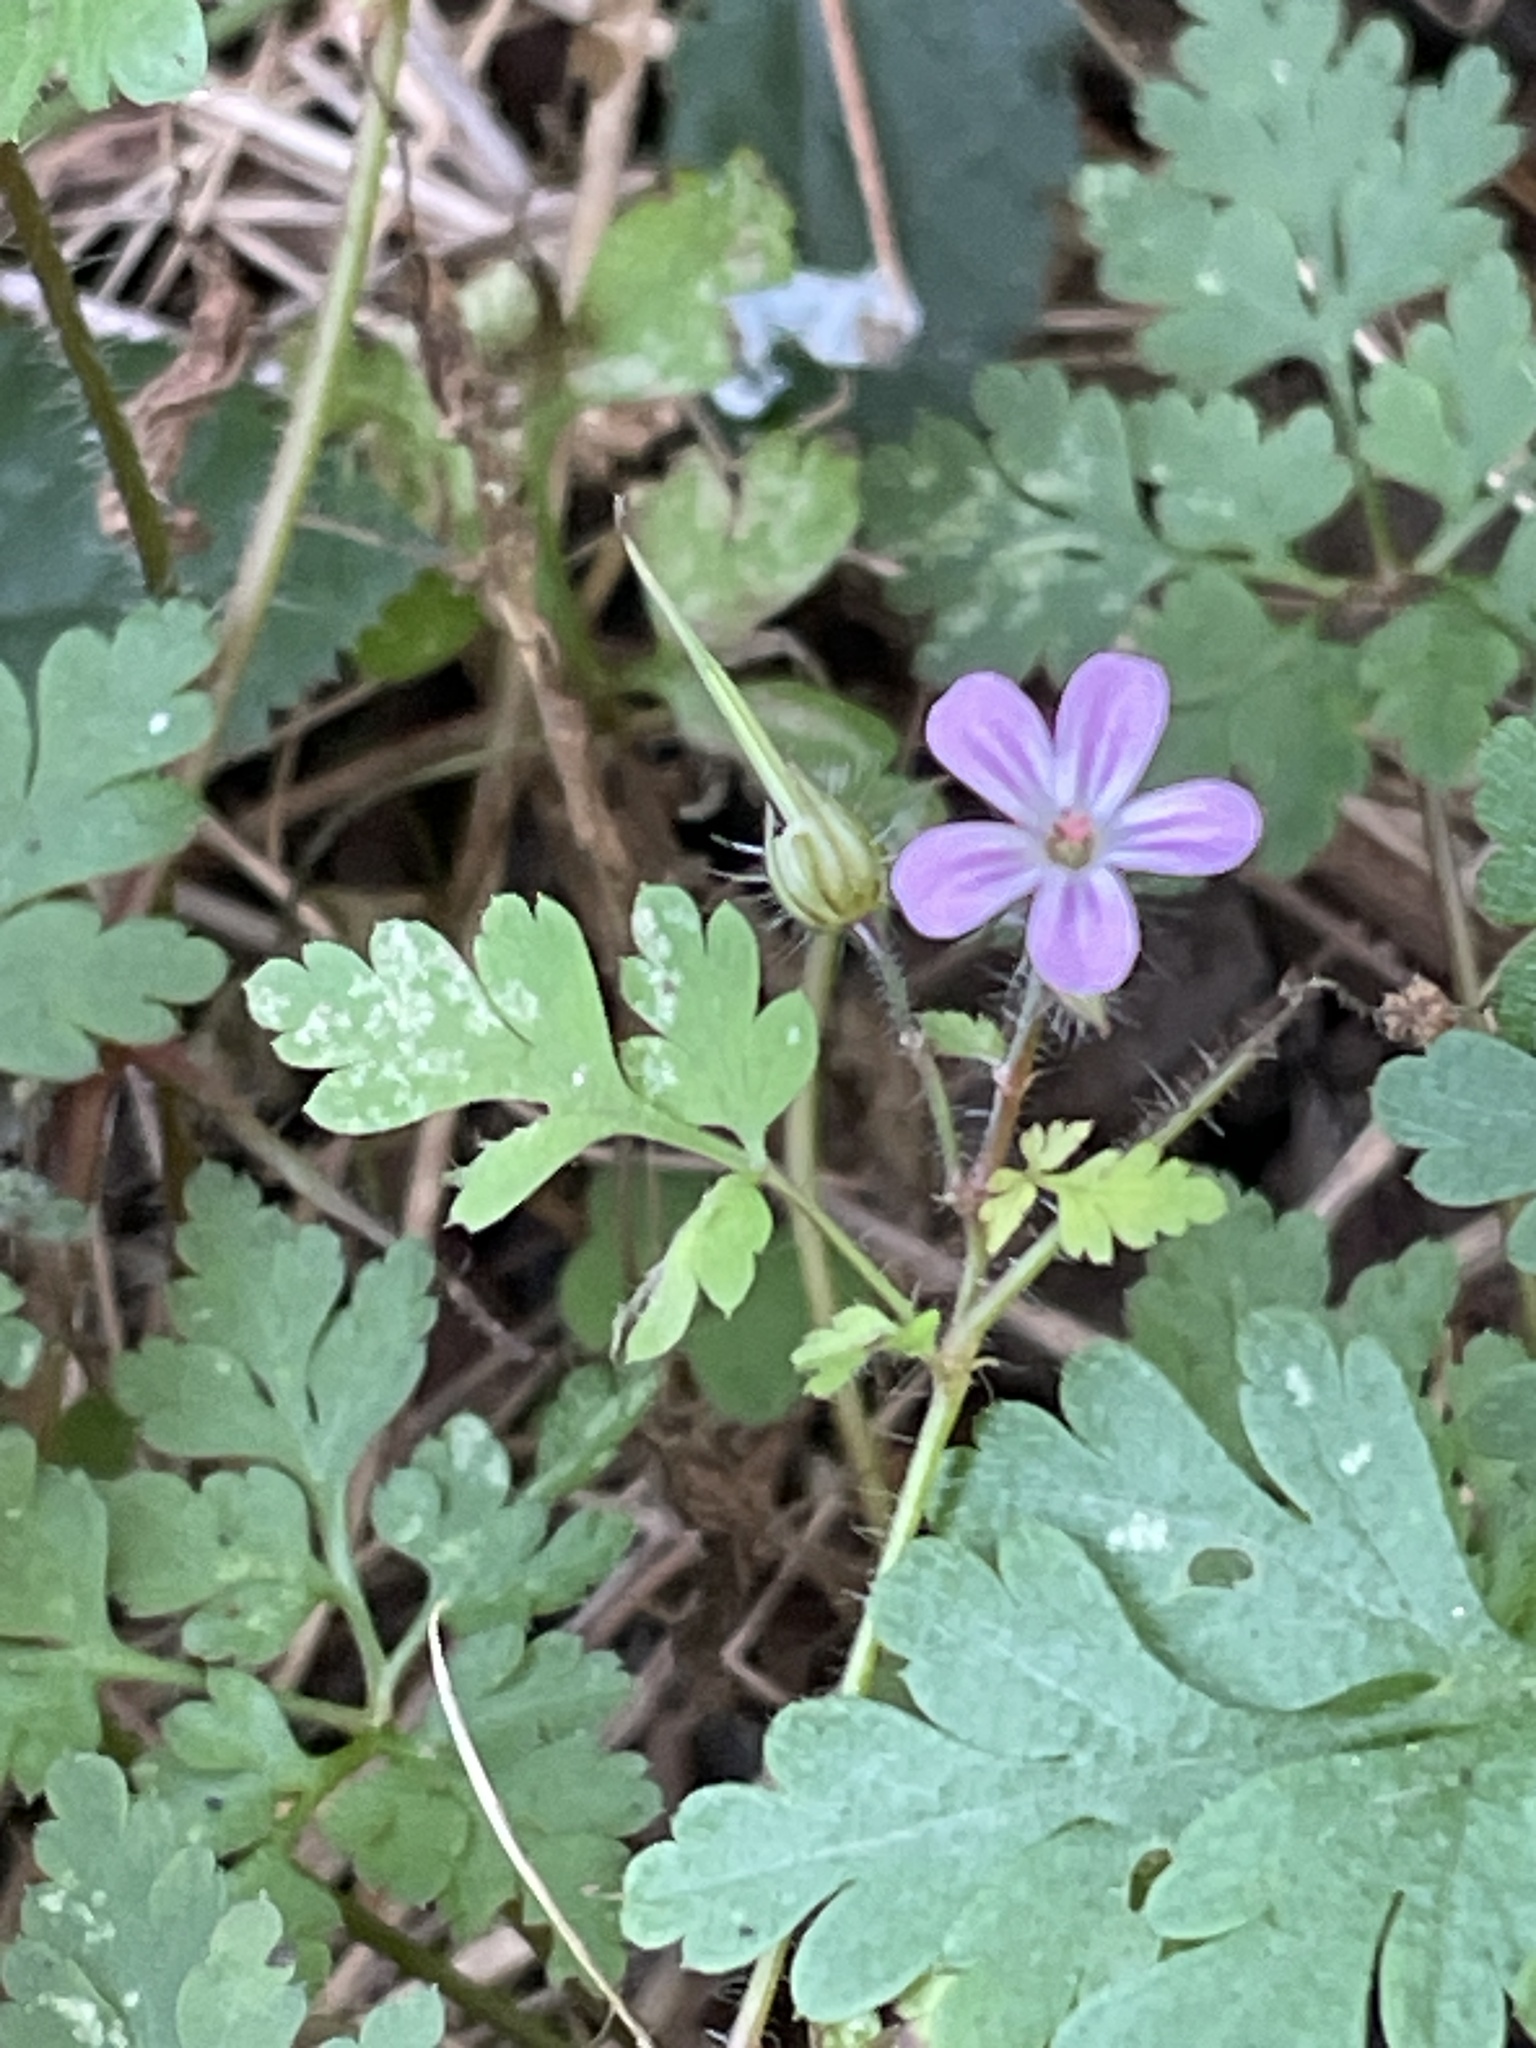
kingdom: Plantae
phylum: Tracheophyta
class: Magnoliopsida
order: Geraniales
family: Geraniaceae
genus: Geranium
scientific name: Geranium robertianum
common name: Herb-robert
